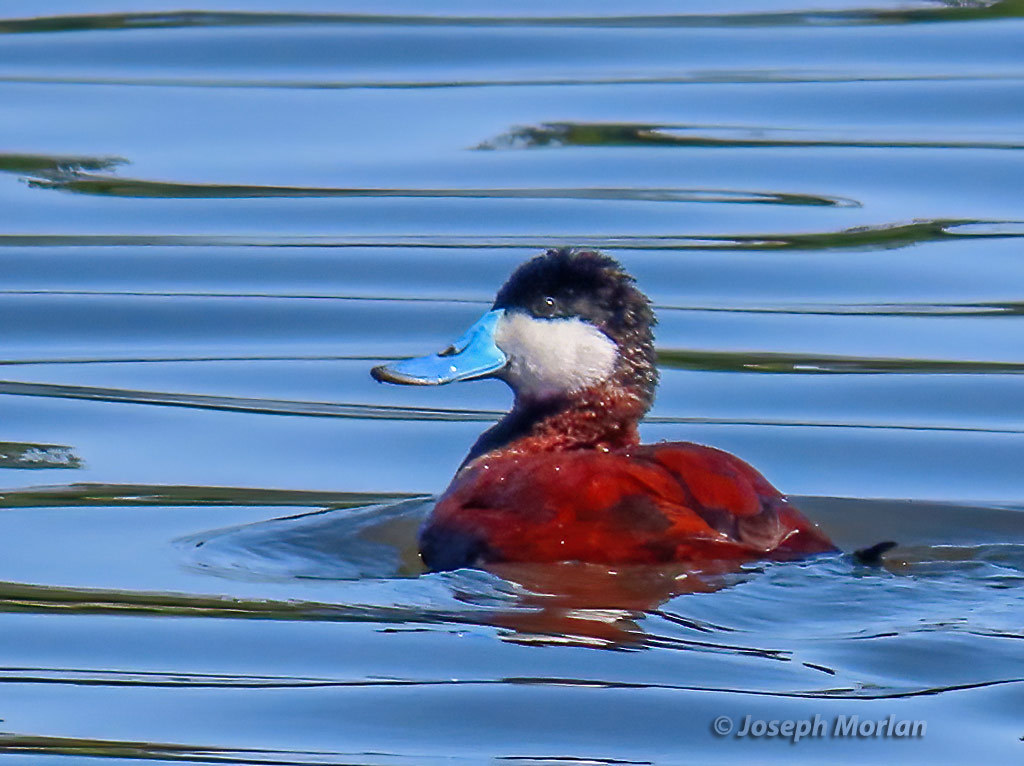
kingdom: Animalia
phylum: Chordata
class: Aves
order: Anseriformes
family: Anatidae
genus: Oxyura
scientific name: Oxyura jamaicensis
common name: Ruddy duck
